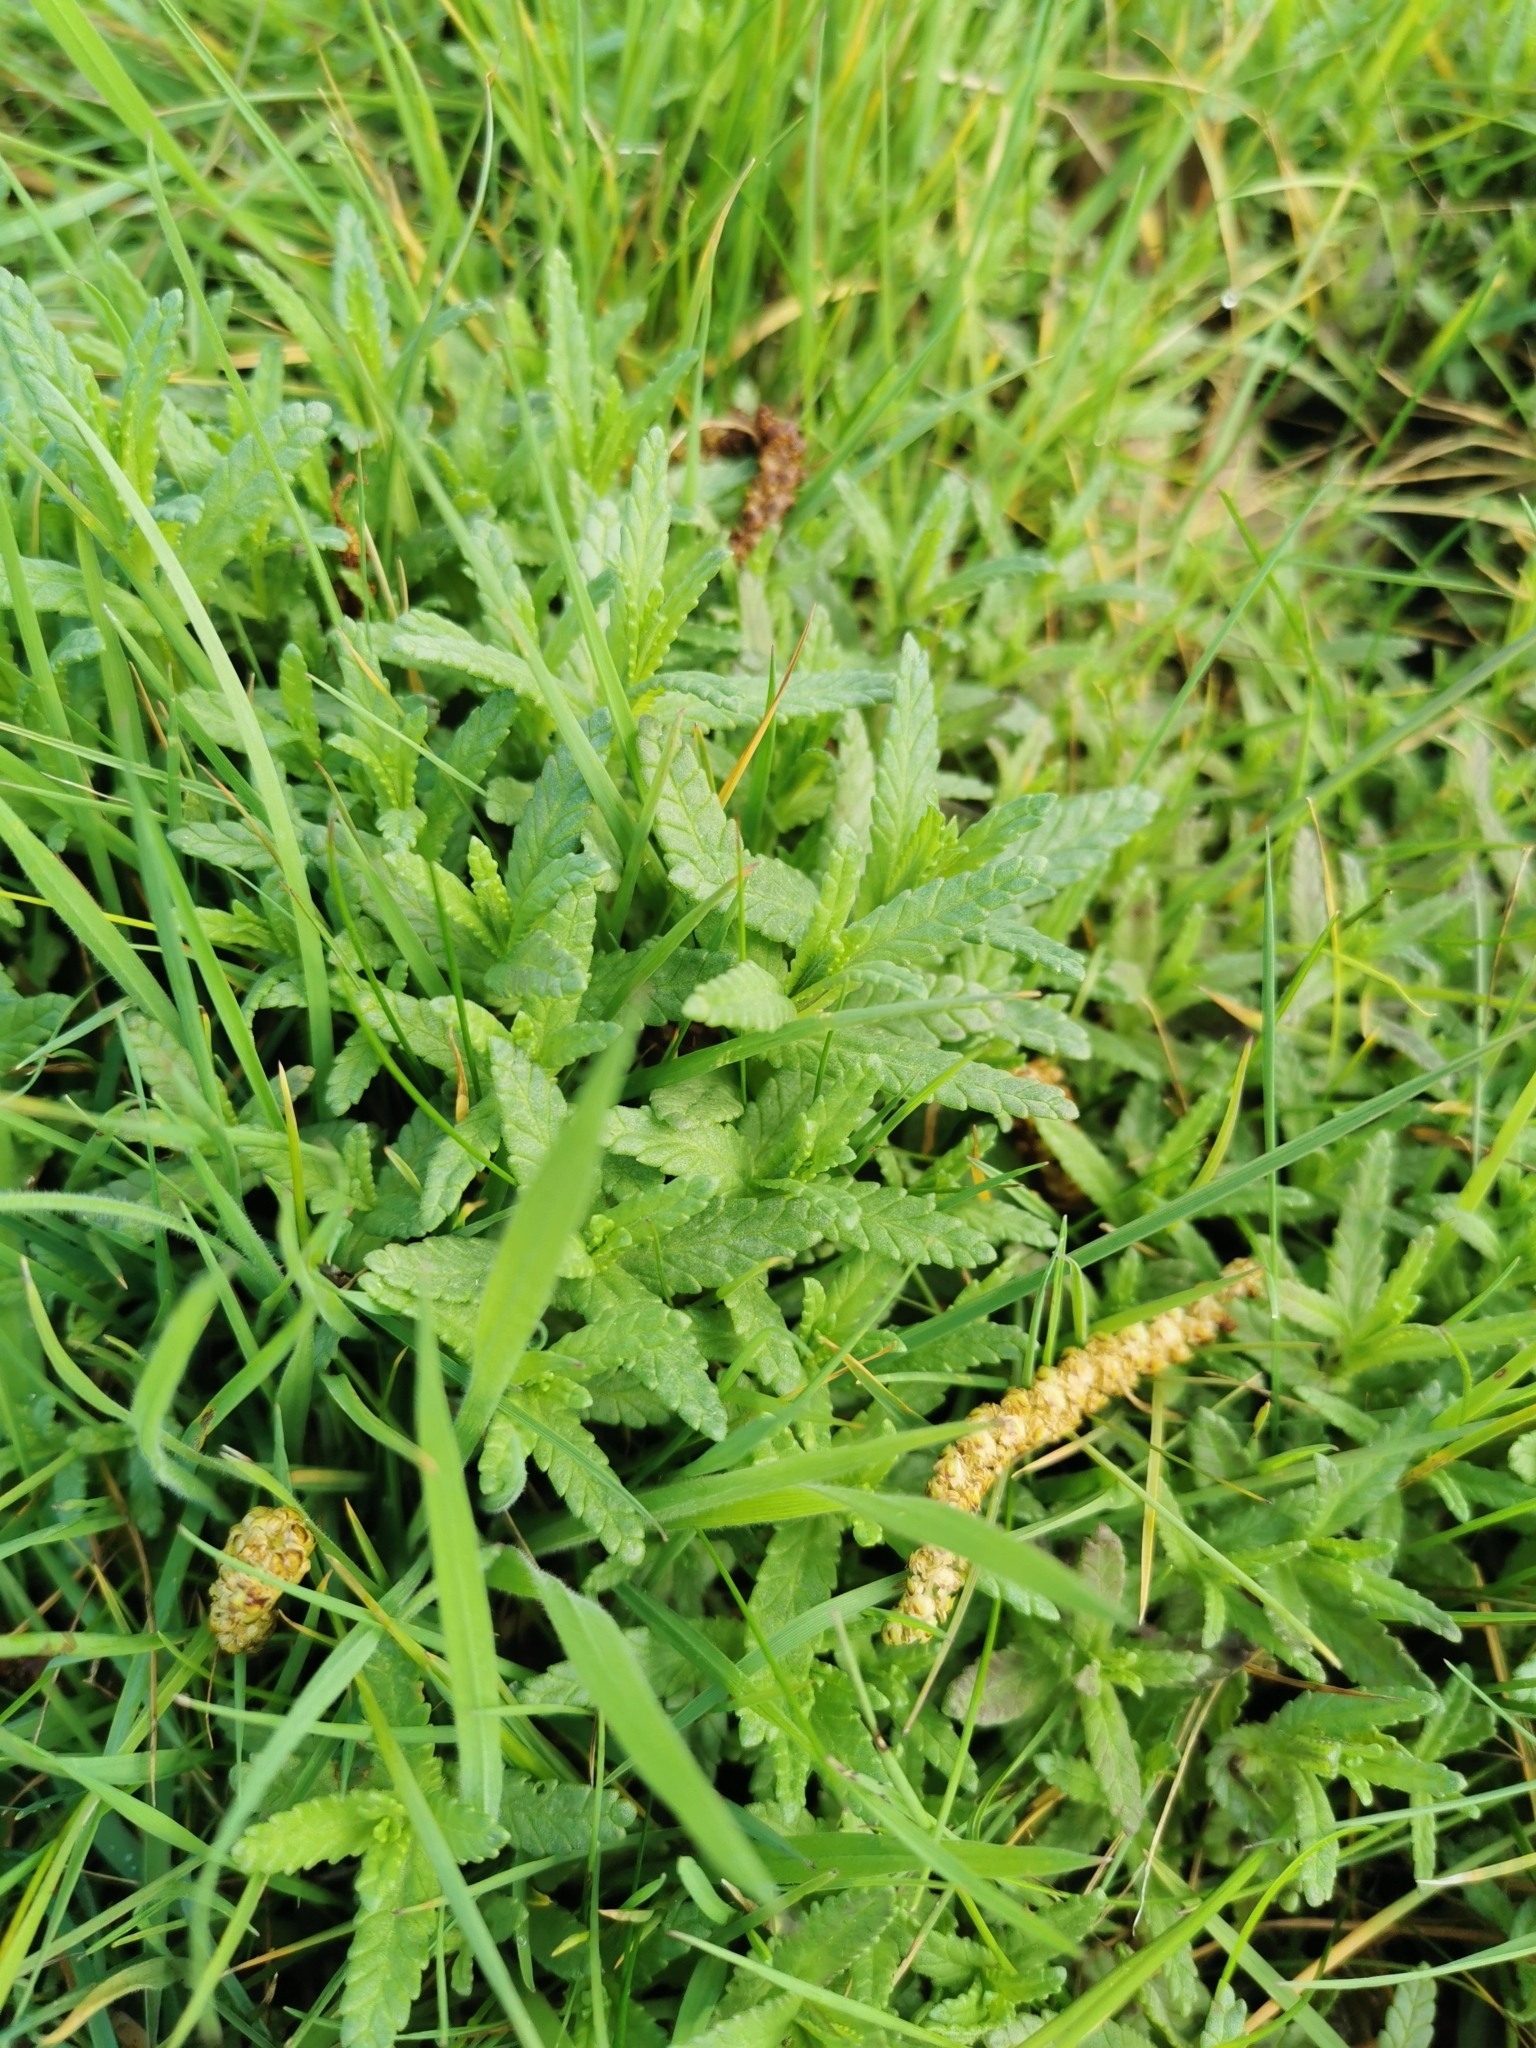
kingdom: Plantae
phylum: Tracheophyta
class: Magnoliopsida
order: Boraginales
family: Boraginaceae
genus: Myosotis
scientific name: Myosotis sylvatica
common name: Wood forget-me-not
